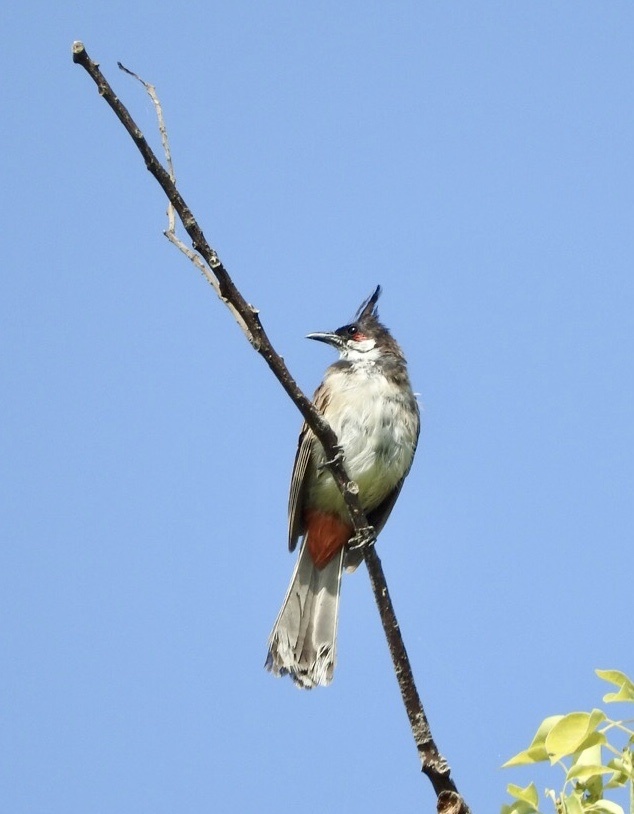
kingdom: Animalia
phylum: Chordata
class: Aves
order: Passeriformes
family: Pycnonotidae
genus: Pycnonotus
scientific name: Pycnonotus jocosus
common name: Red-whiskered bulbul
